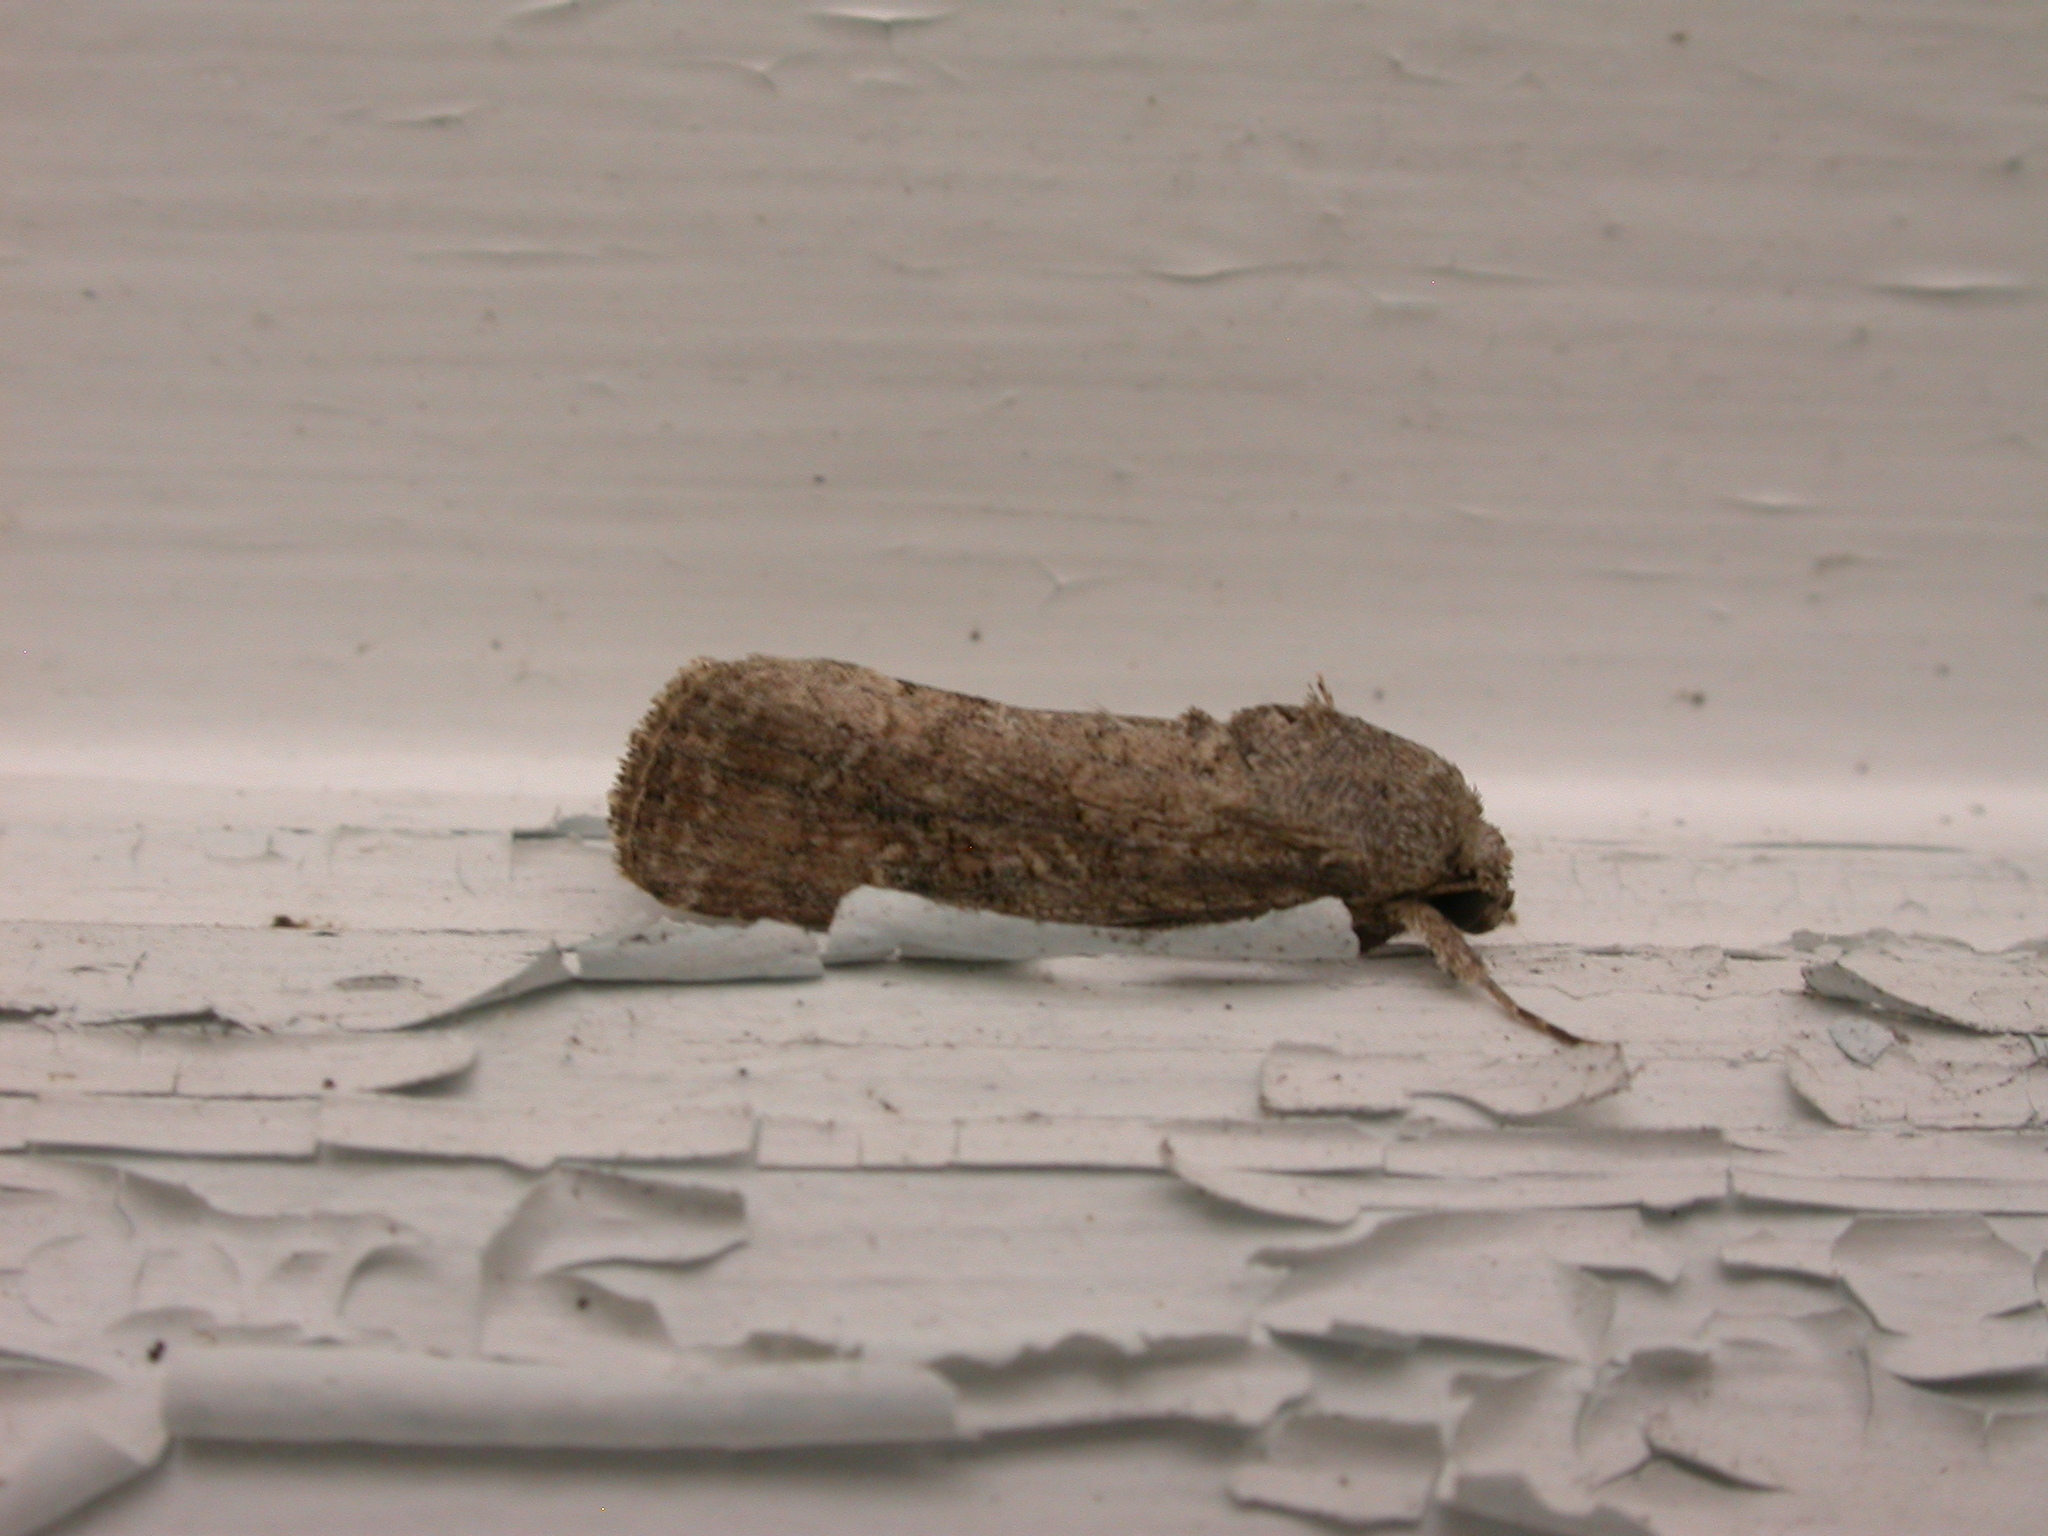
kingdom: Animalia
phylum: Arthropoda
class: Insecta
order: Lepidoptera
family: Noctuidae
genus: Spodoptera
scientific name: Spodoptera frugiperda
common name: Fall armyworm
